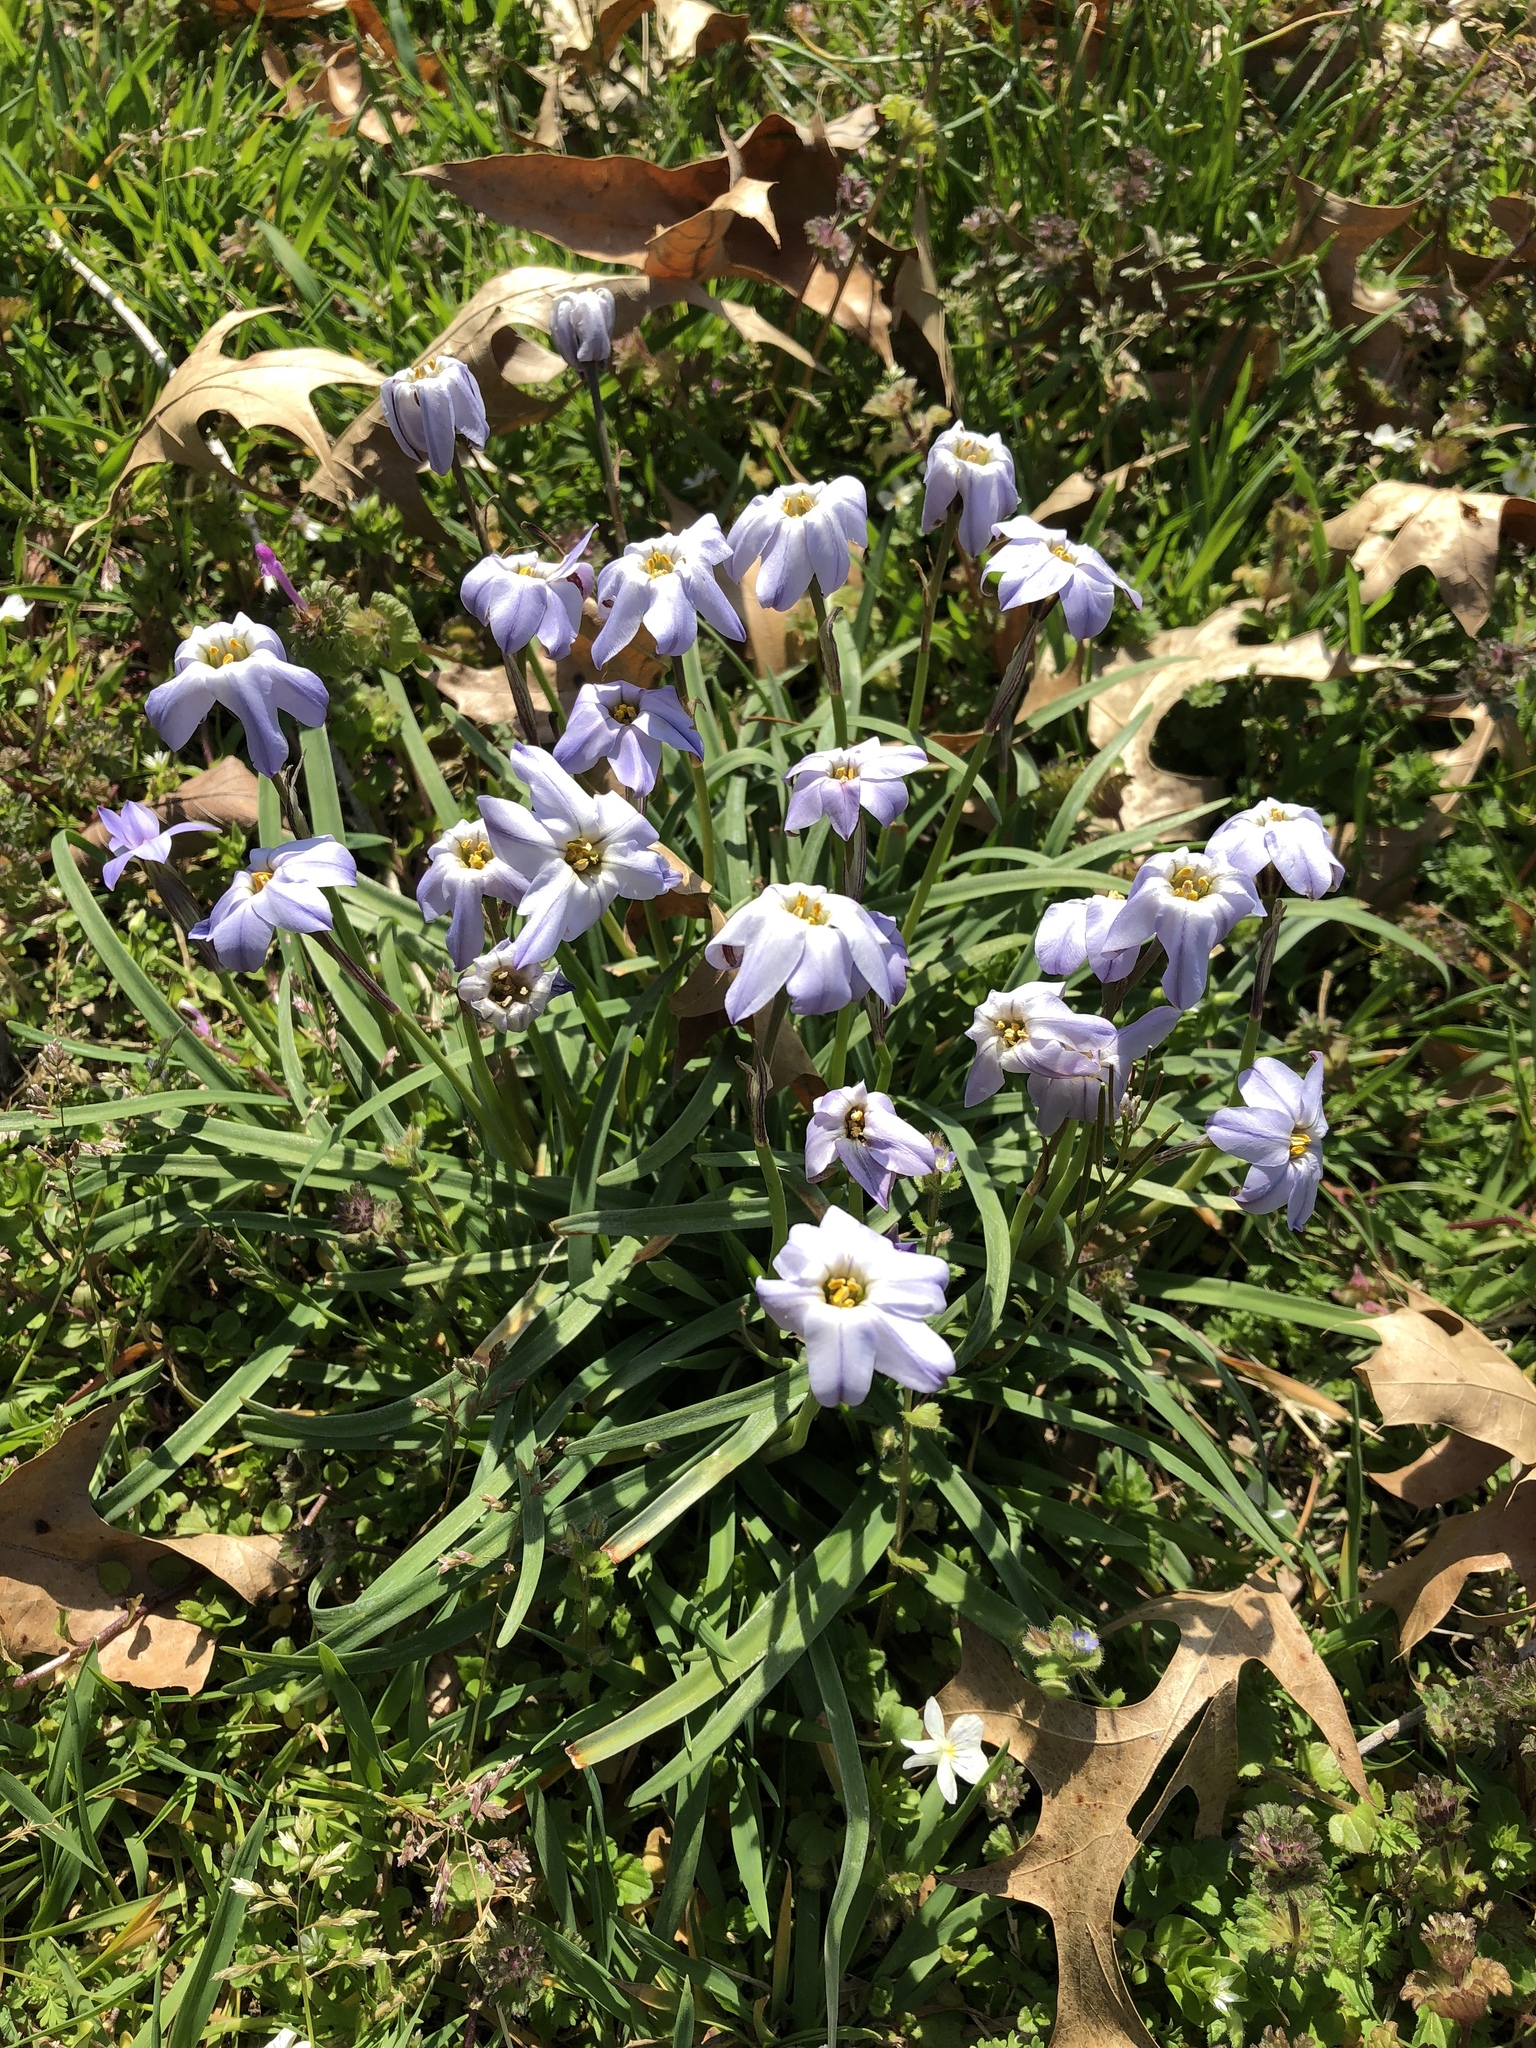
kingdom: Plantae
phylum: Tracheophyta
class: Liliopsida
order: Asparagales
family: Amaryllidaceae
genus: Ipheion
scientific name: Ipheion uniflorum
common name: Spring starflower
